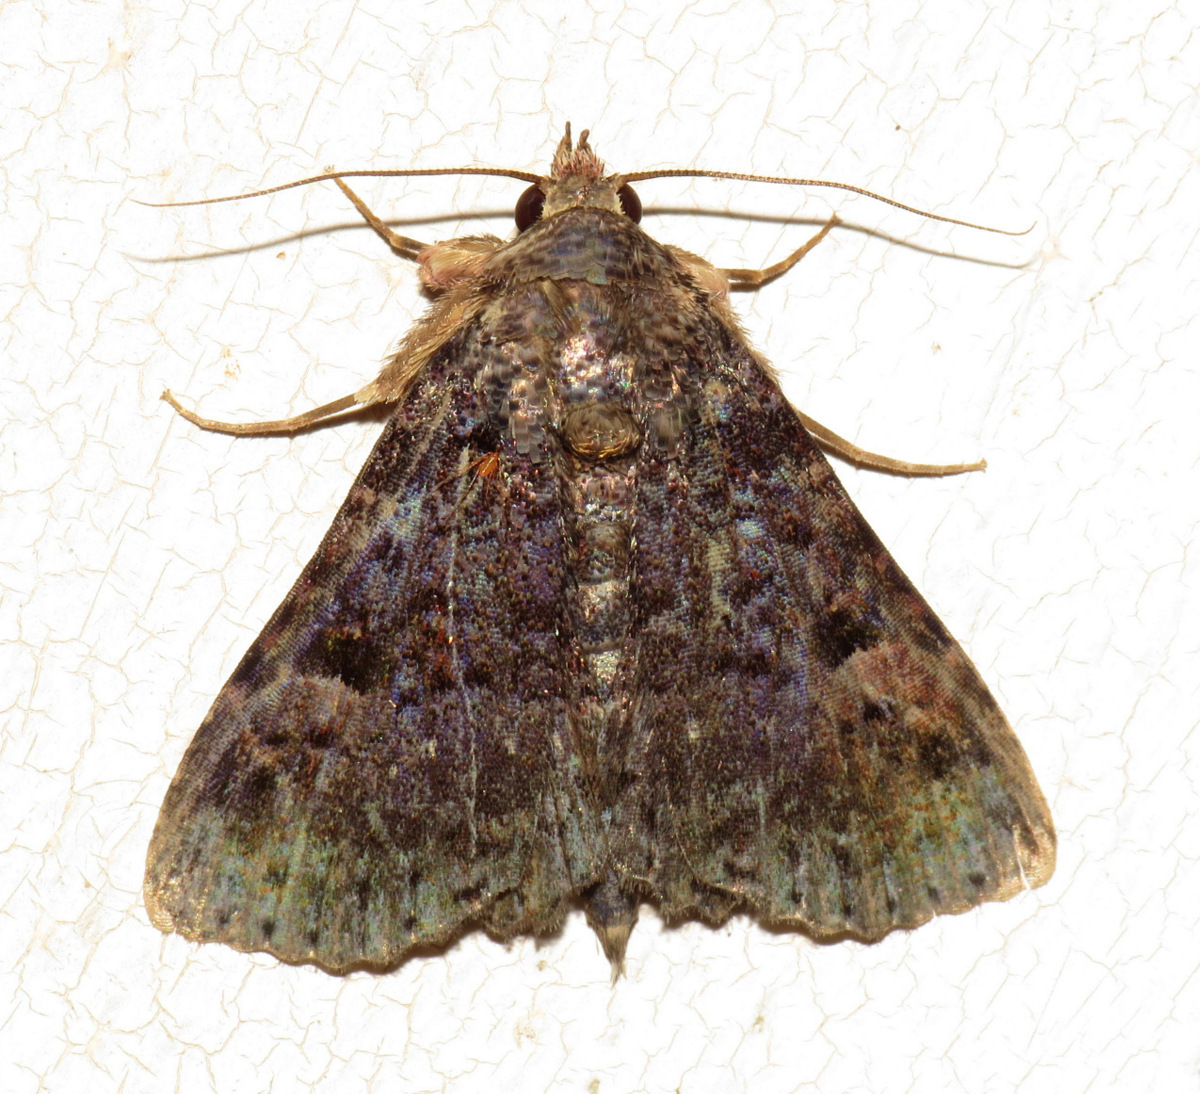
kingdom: Animalia
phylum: Arthropoda
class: Insecta
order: Lepidoptera
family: Erebidae
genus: Metalectra
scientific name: Metalectra praecisalis
